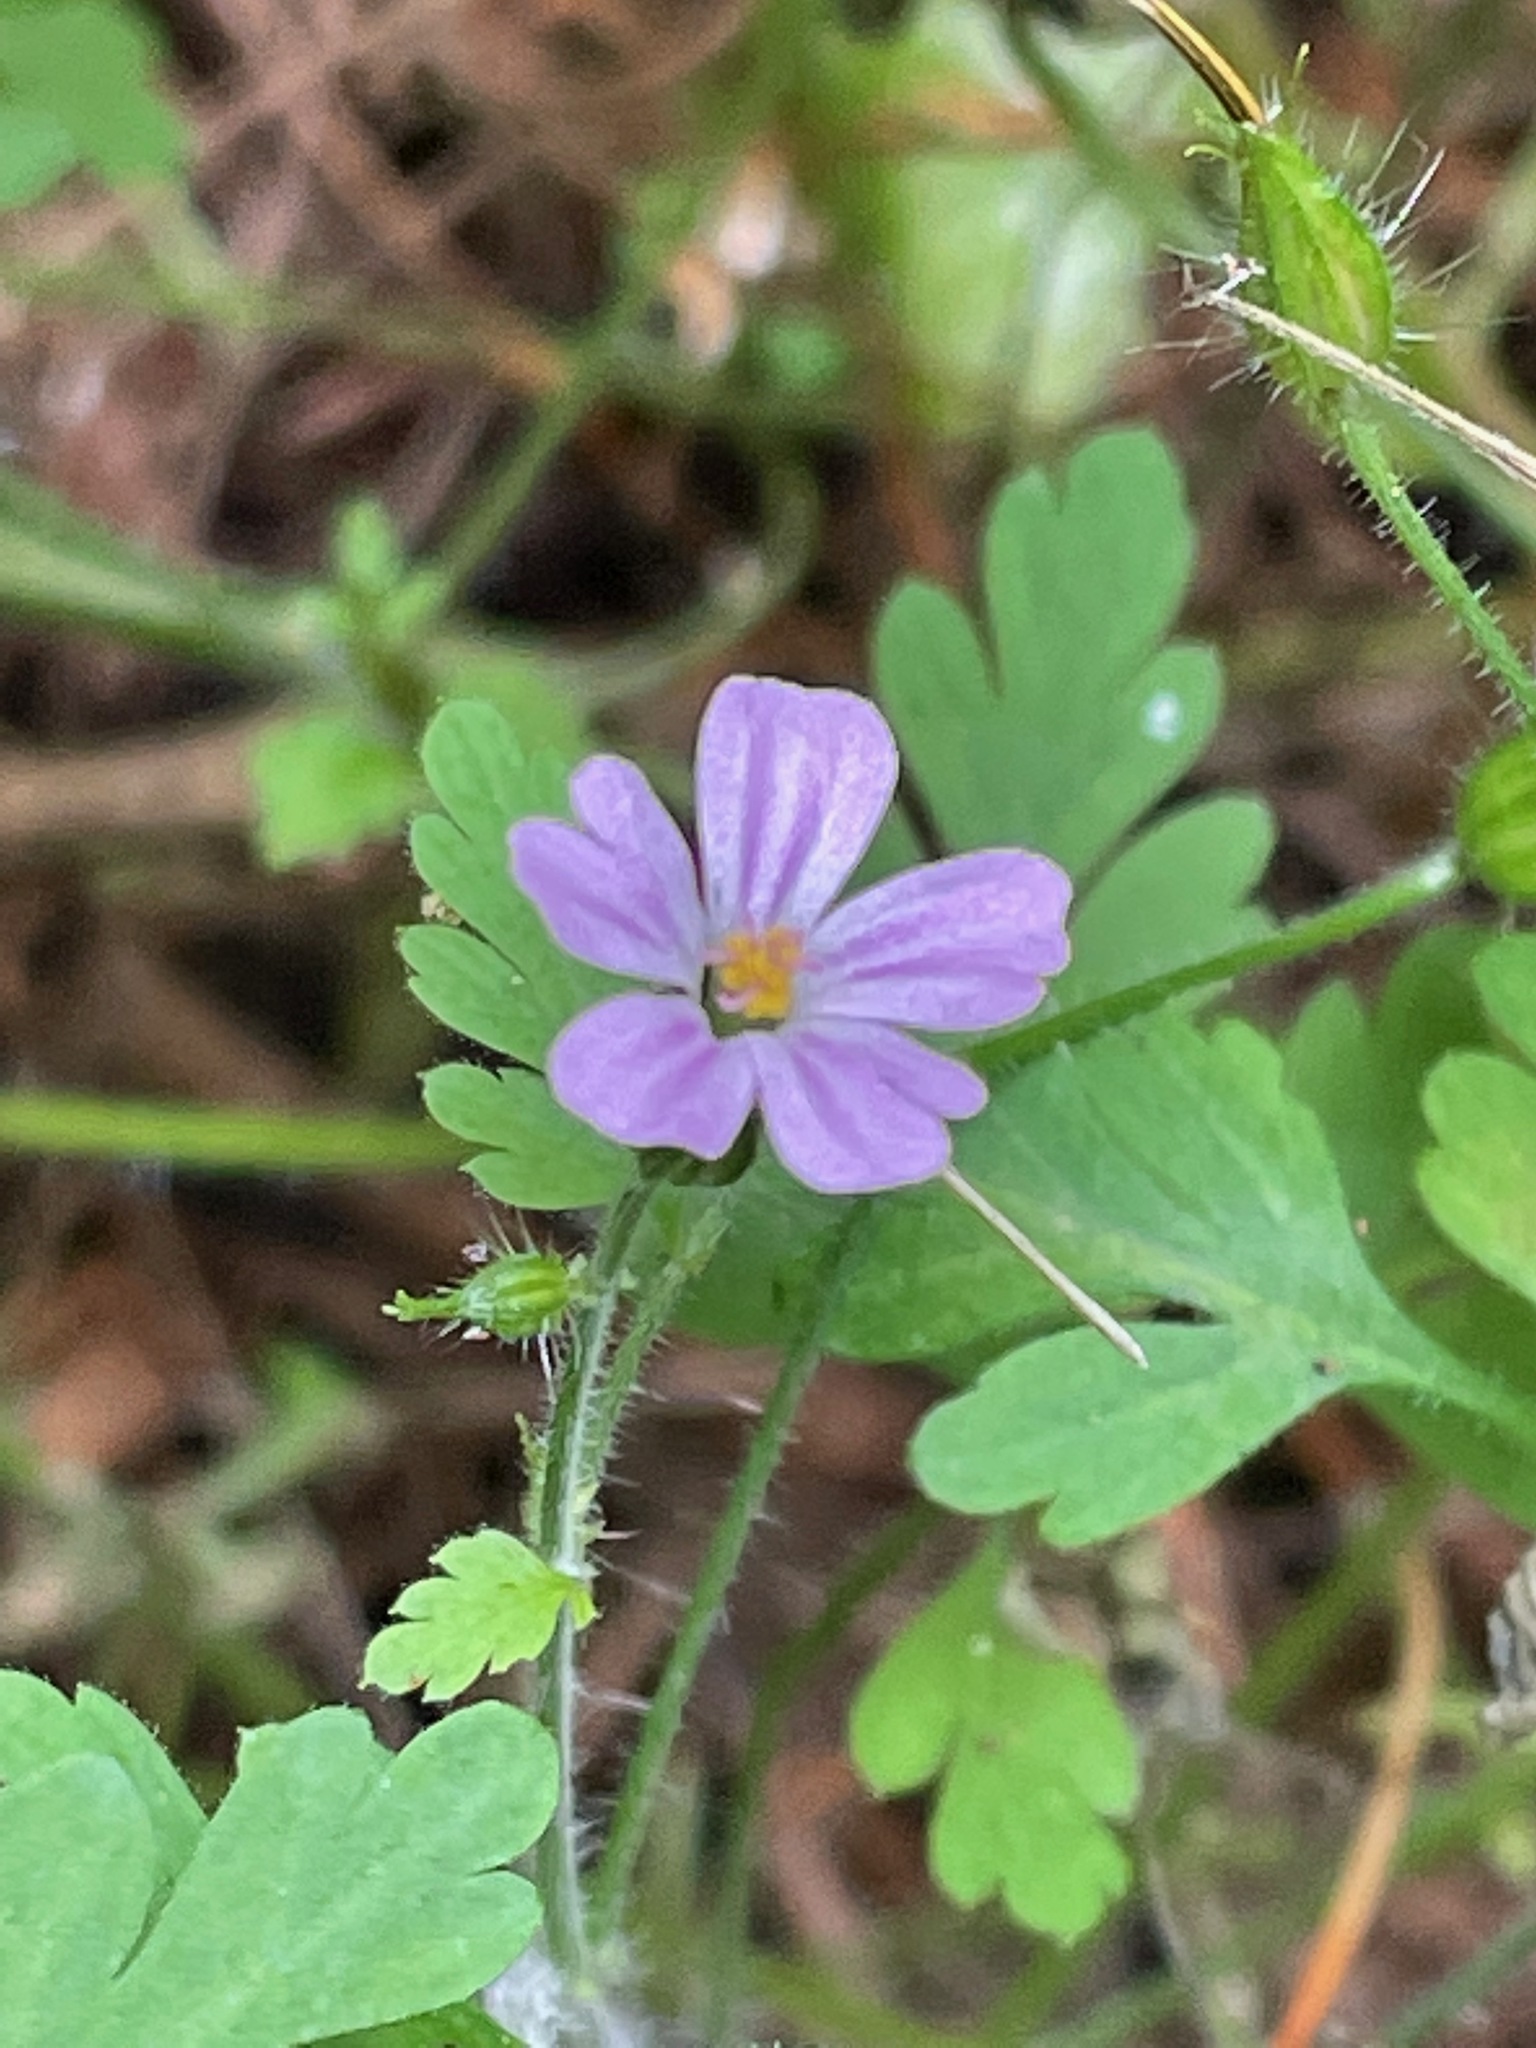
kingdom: Plantae
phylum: Tracheophyta
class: Magnoliopsida
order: Geraniales
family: Geraniaceae
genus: Geranium
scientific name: Geranium robertianum
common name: Herb-robert
